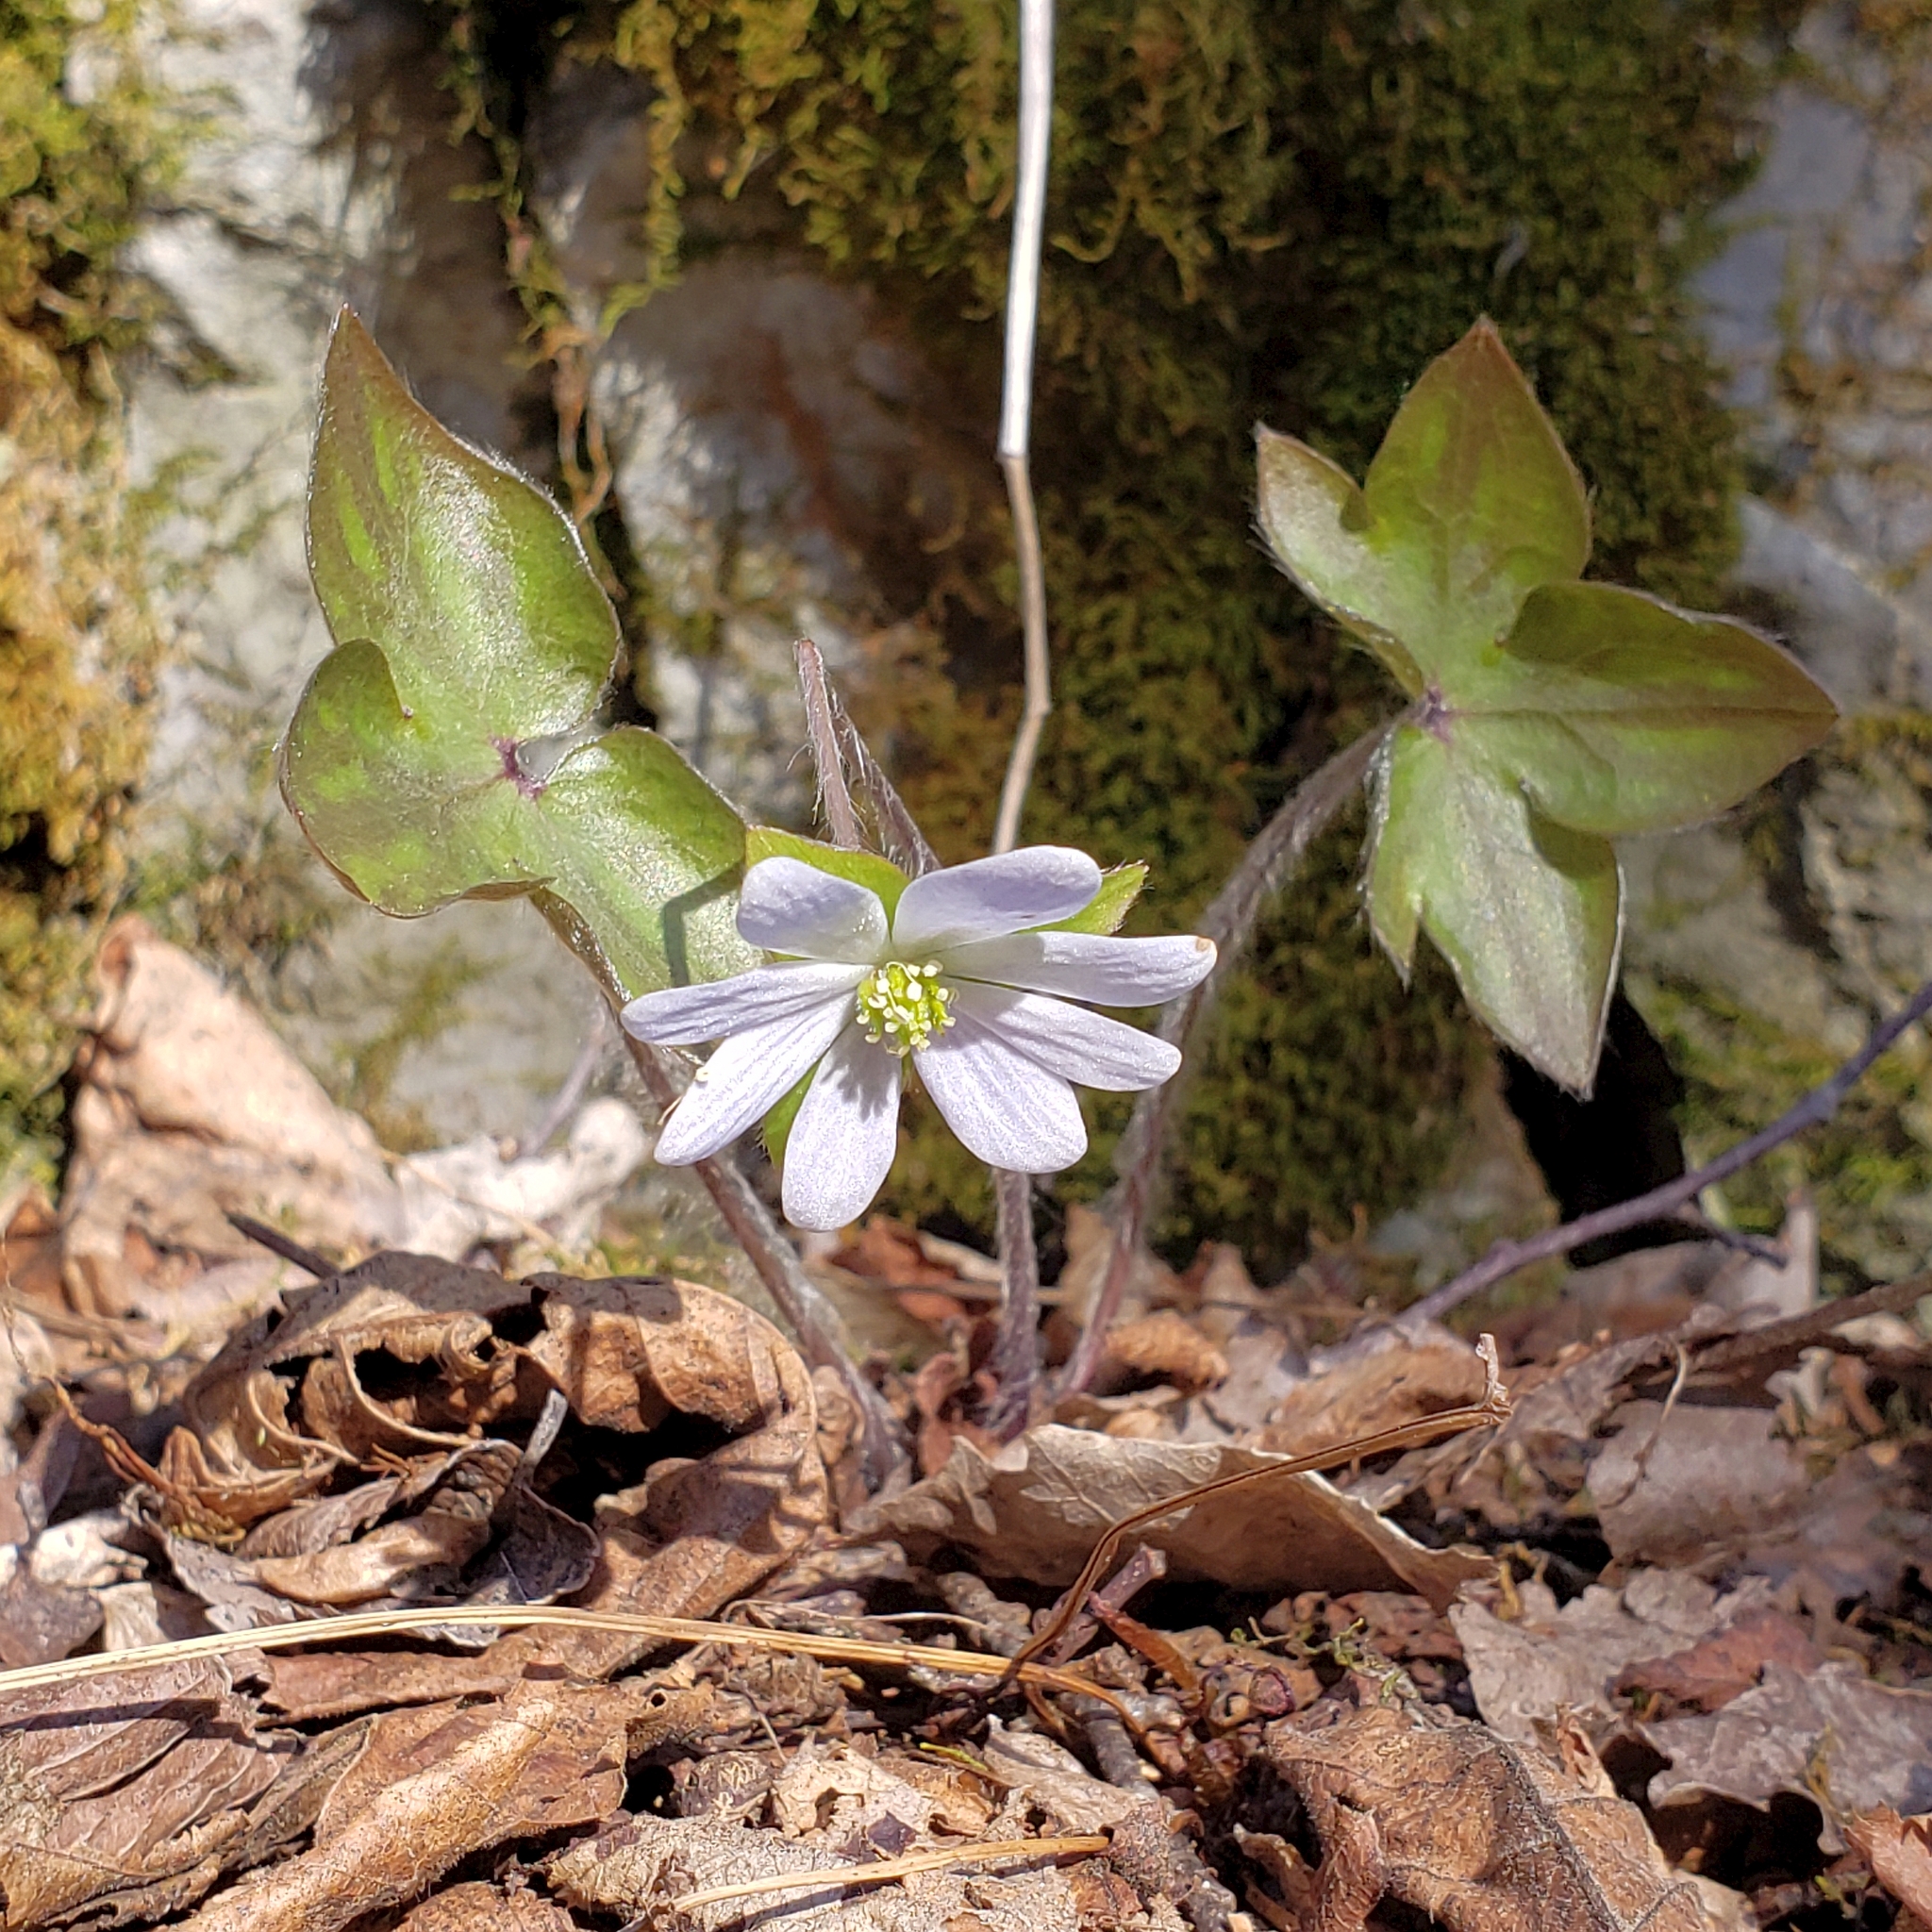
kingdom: Plantae
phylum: Tracheophyta
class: Magnoliopsida
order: Ranunculales
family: Ranunculaceae
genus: Hepatica
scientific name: Hepatica acutiloba
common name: Sharp-lobed hepatica
